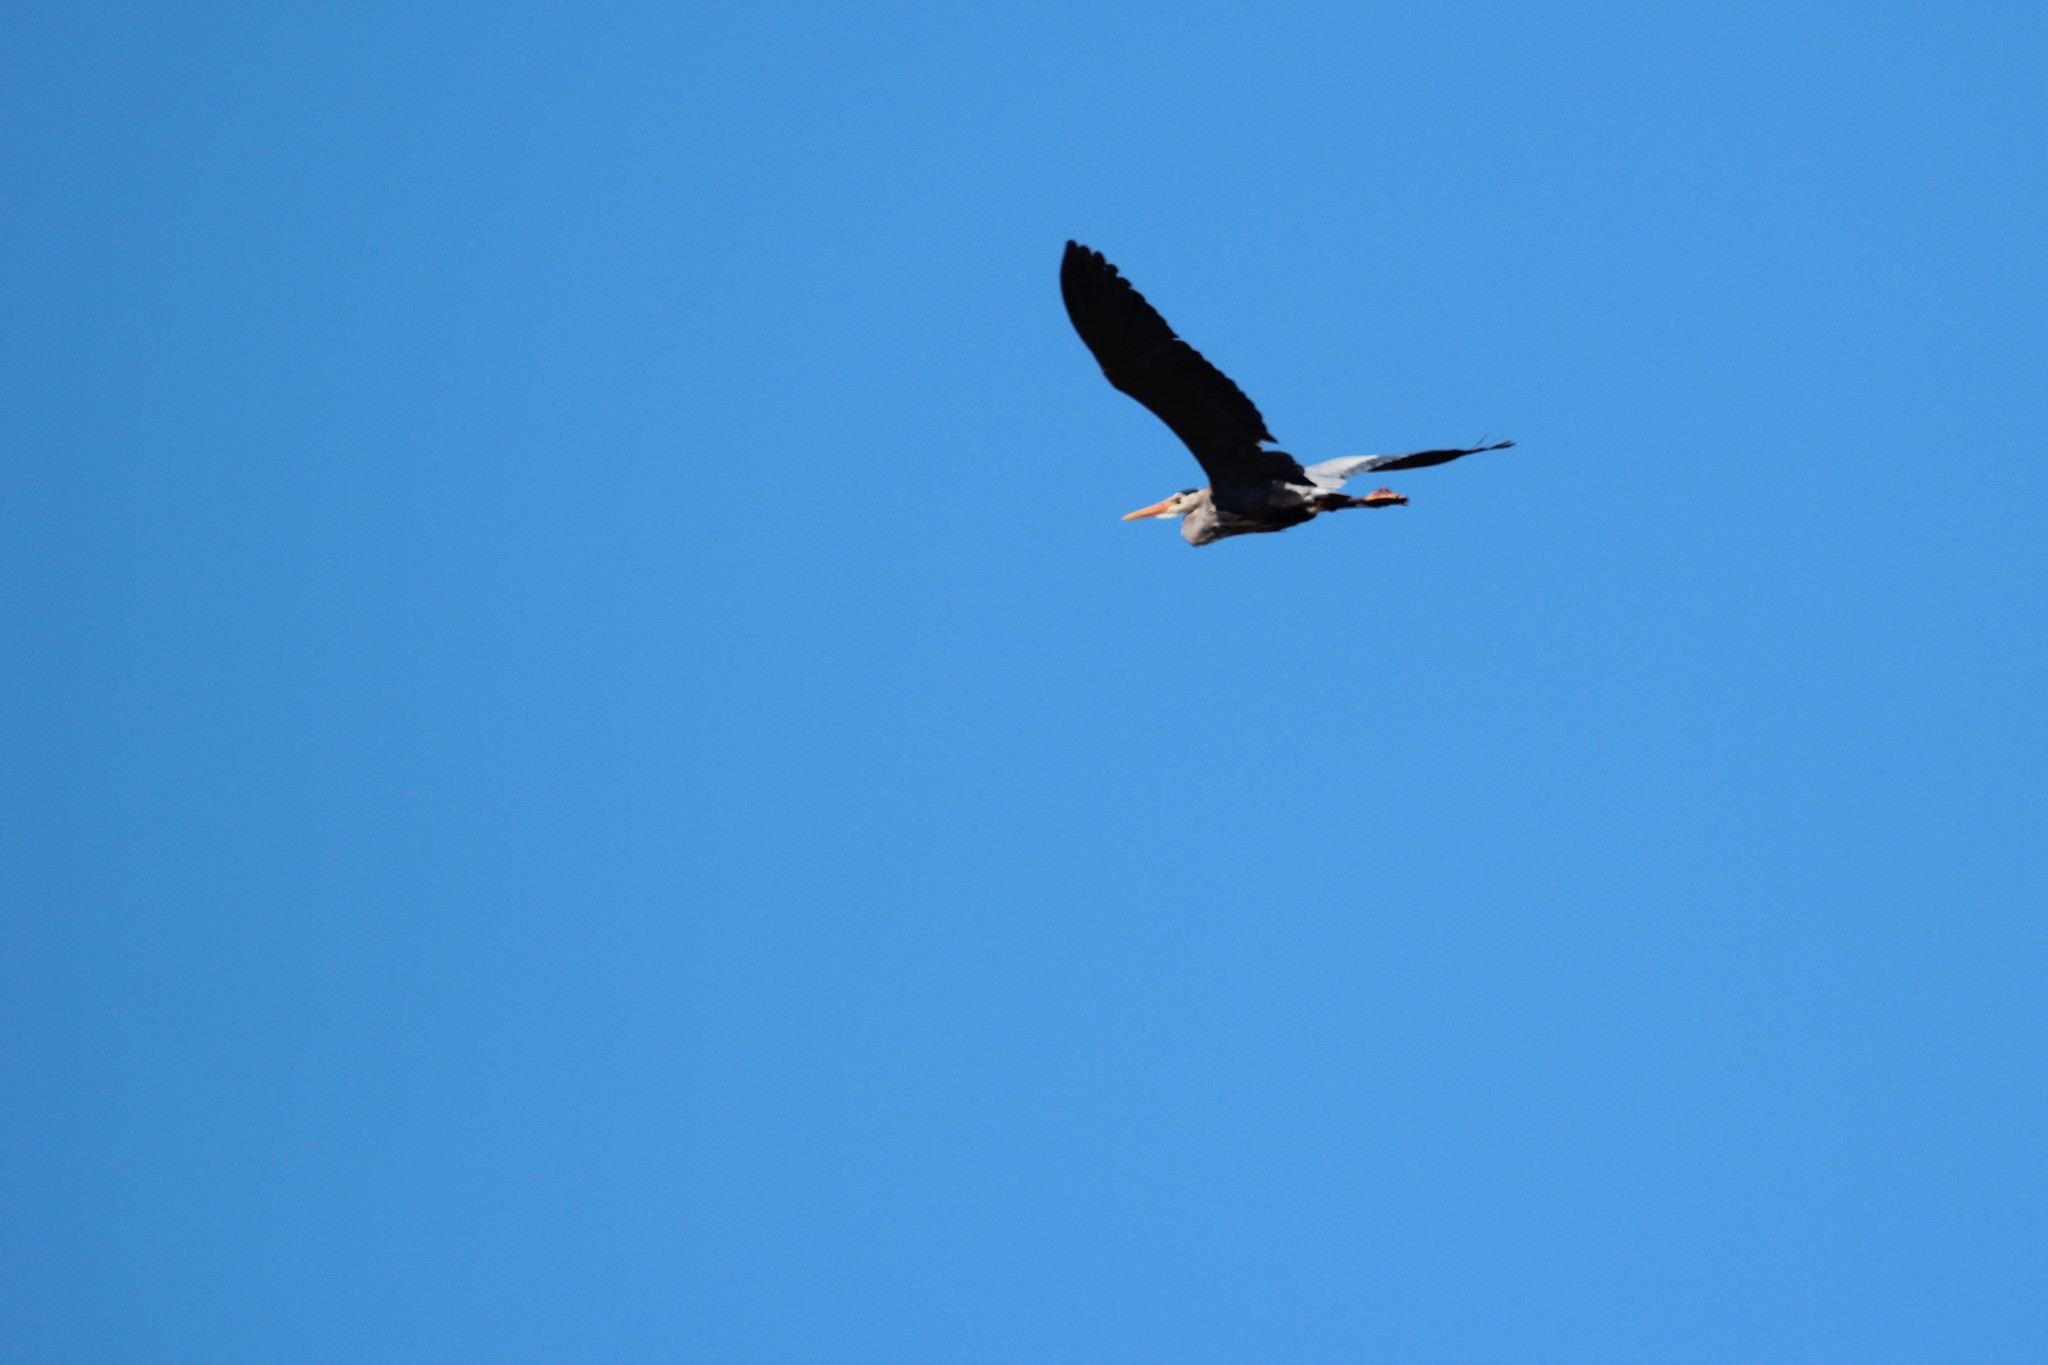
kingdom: Animalia
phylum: Chordata
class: Aves
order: Pelecaniformes
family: Ardeidae
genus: Ardea
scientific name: Ardea herodias
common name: Great blue heron
